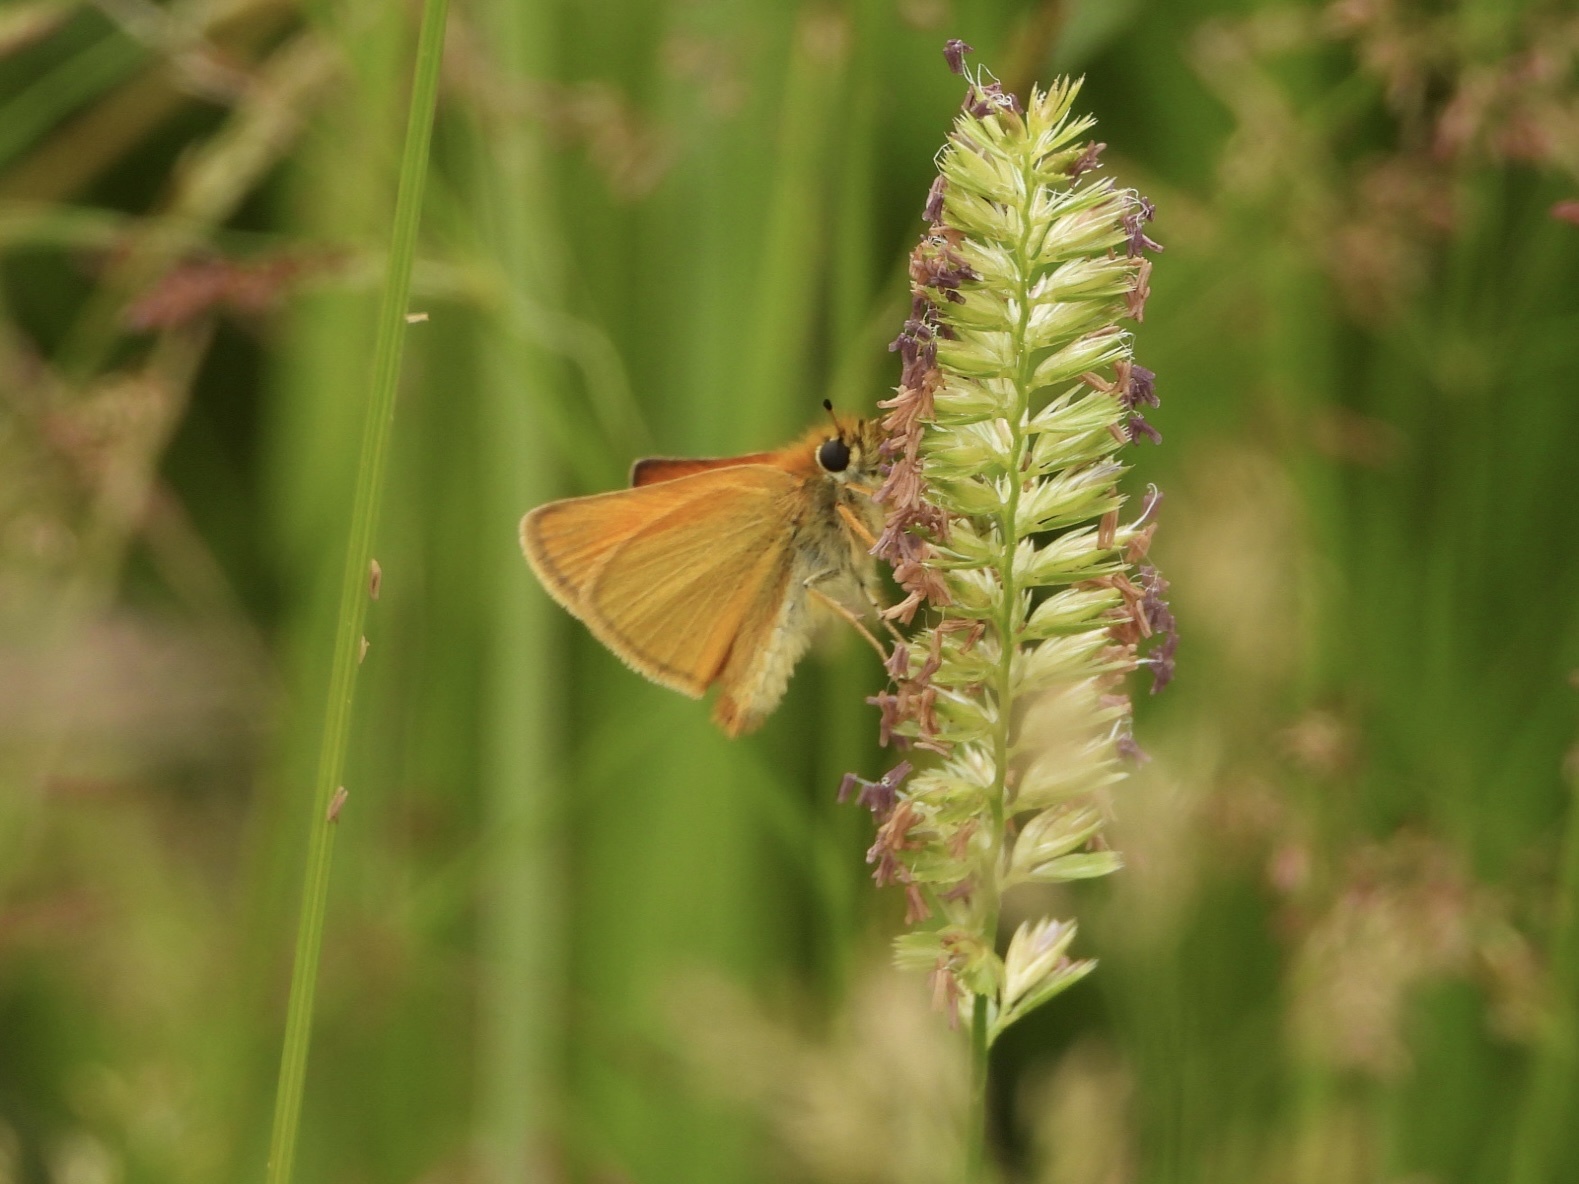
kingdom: Animalia
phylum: Arthropoda
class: Insecta
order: Lepidoptera
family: Hesperiidae
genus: Thymelicus
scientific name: Thymelicus lineola
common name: Essex skipper
